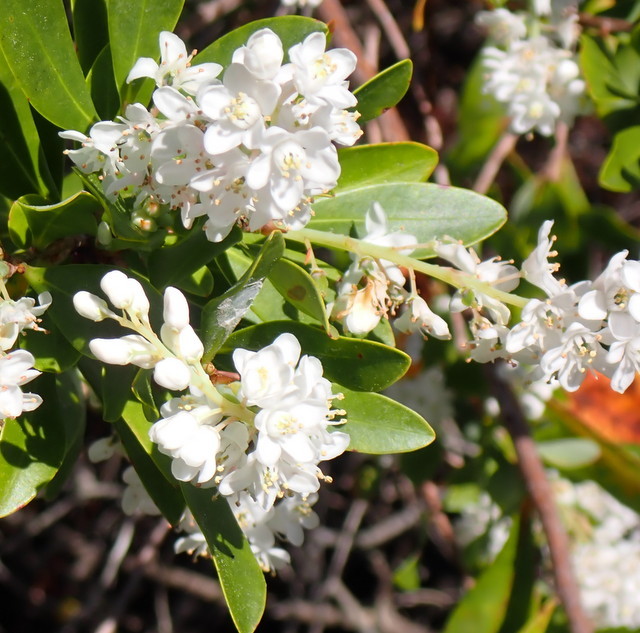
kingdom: Plantae
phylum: Tracheophyta
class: Magnoliopsida
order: Ericales
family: Cyrillaceae
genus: Cliftonia
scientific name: Cliftonia monophylla
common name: Titi
